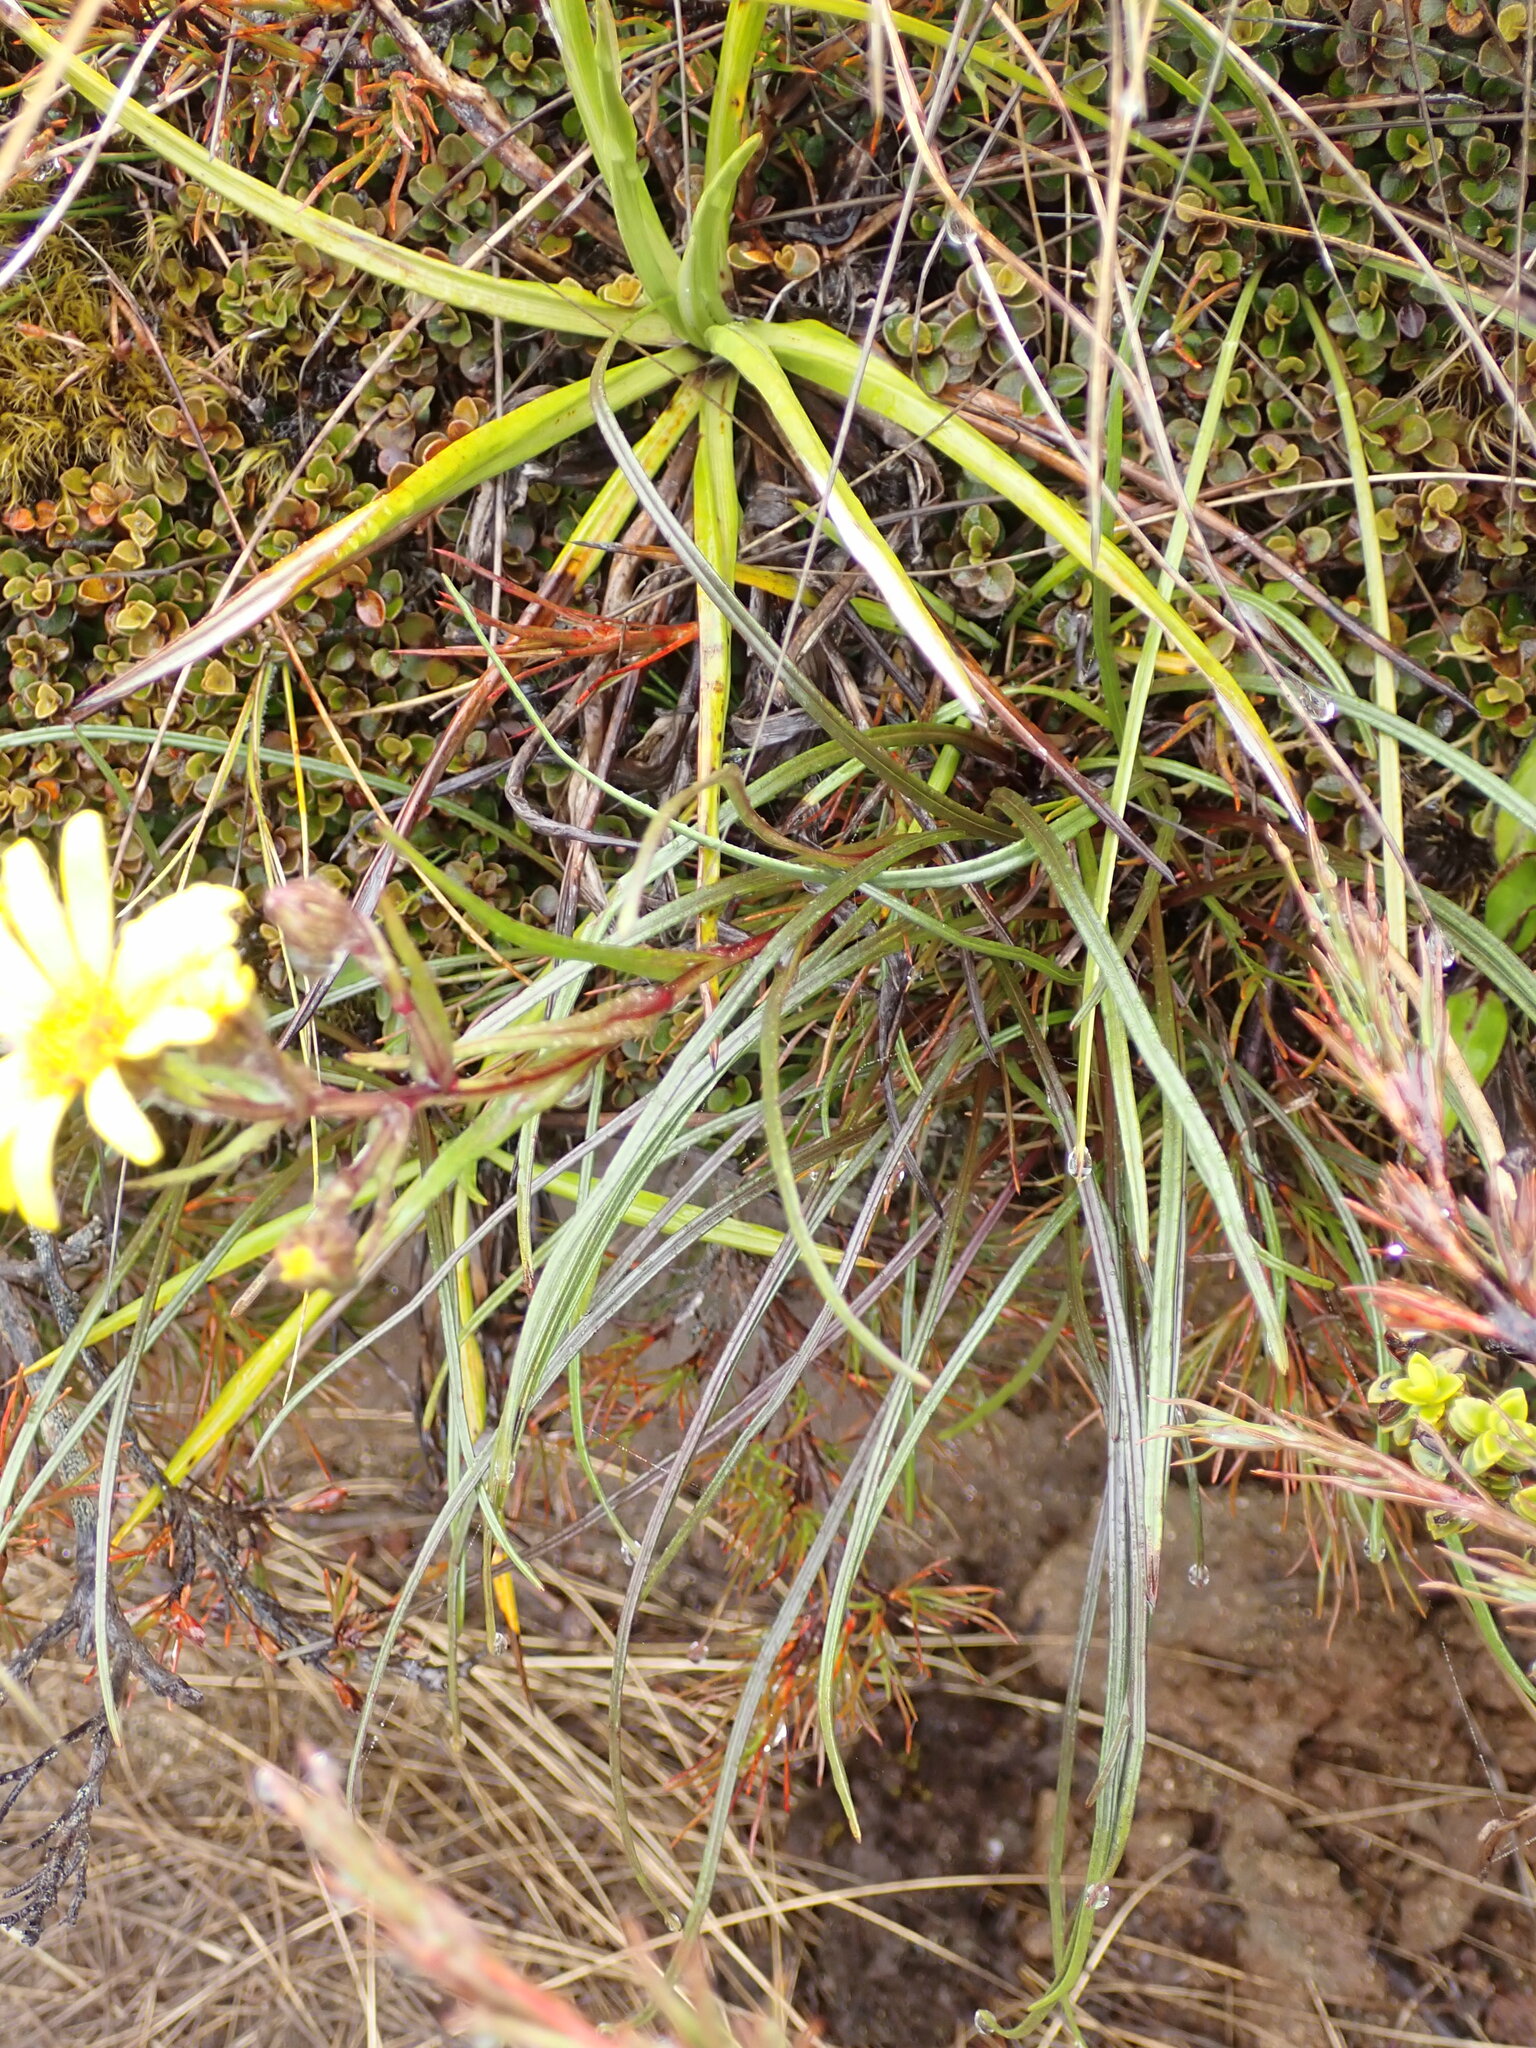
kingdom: Plantae
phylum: Tracheophyta
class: Magnoliopsida
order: Asterales
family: Asteraceae
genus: Dolichoglottis
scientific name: Dolichoglottis lyallii
